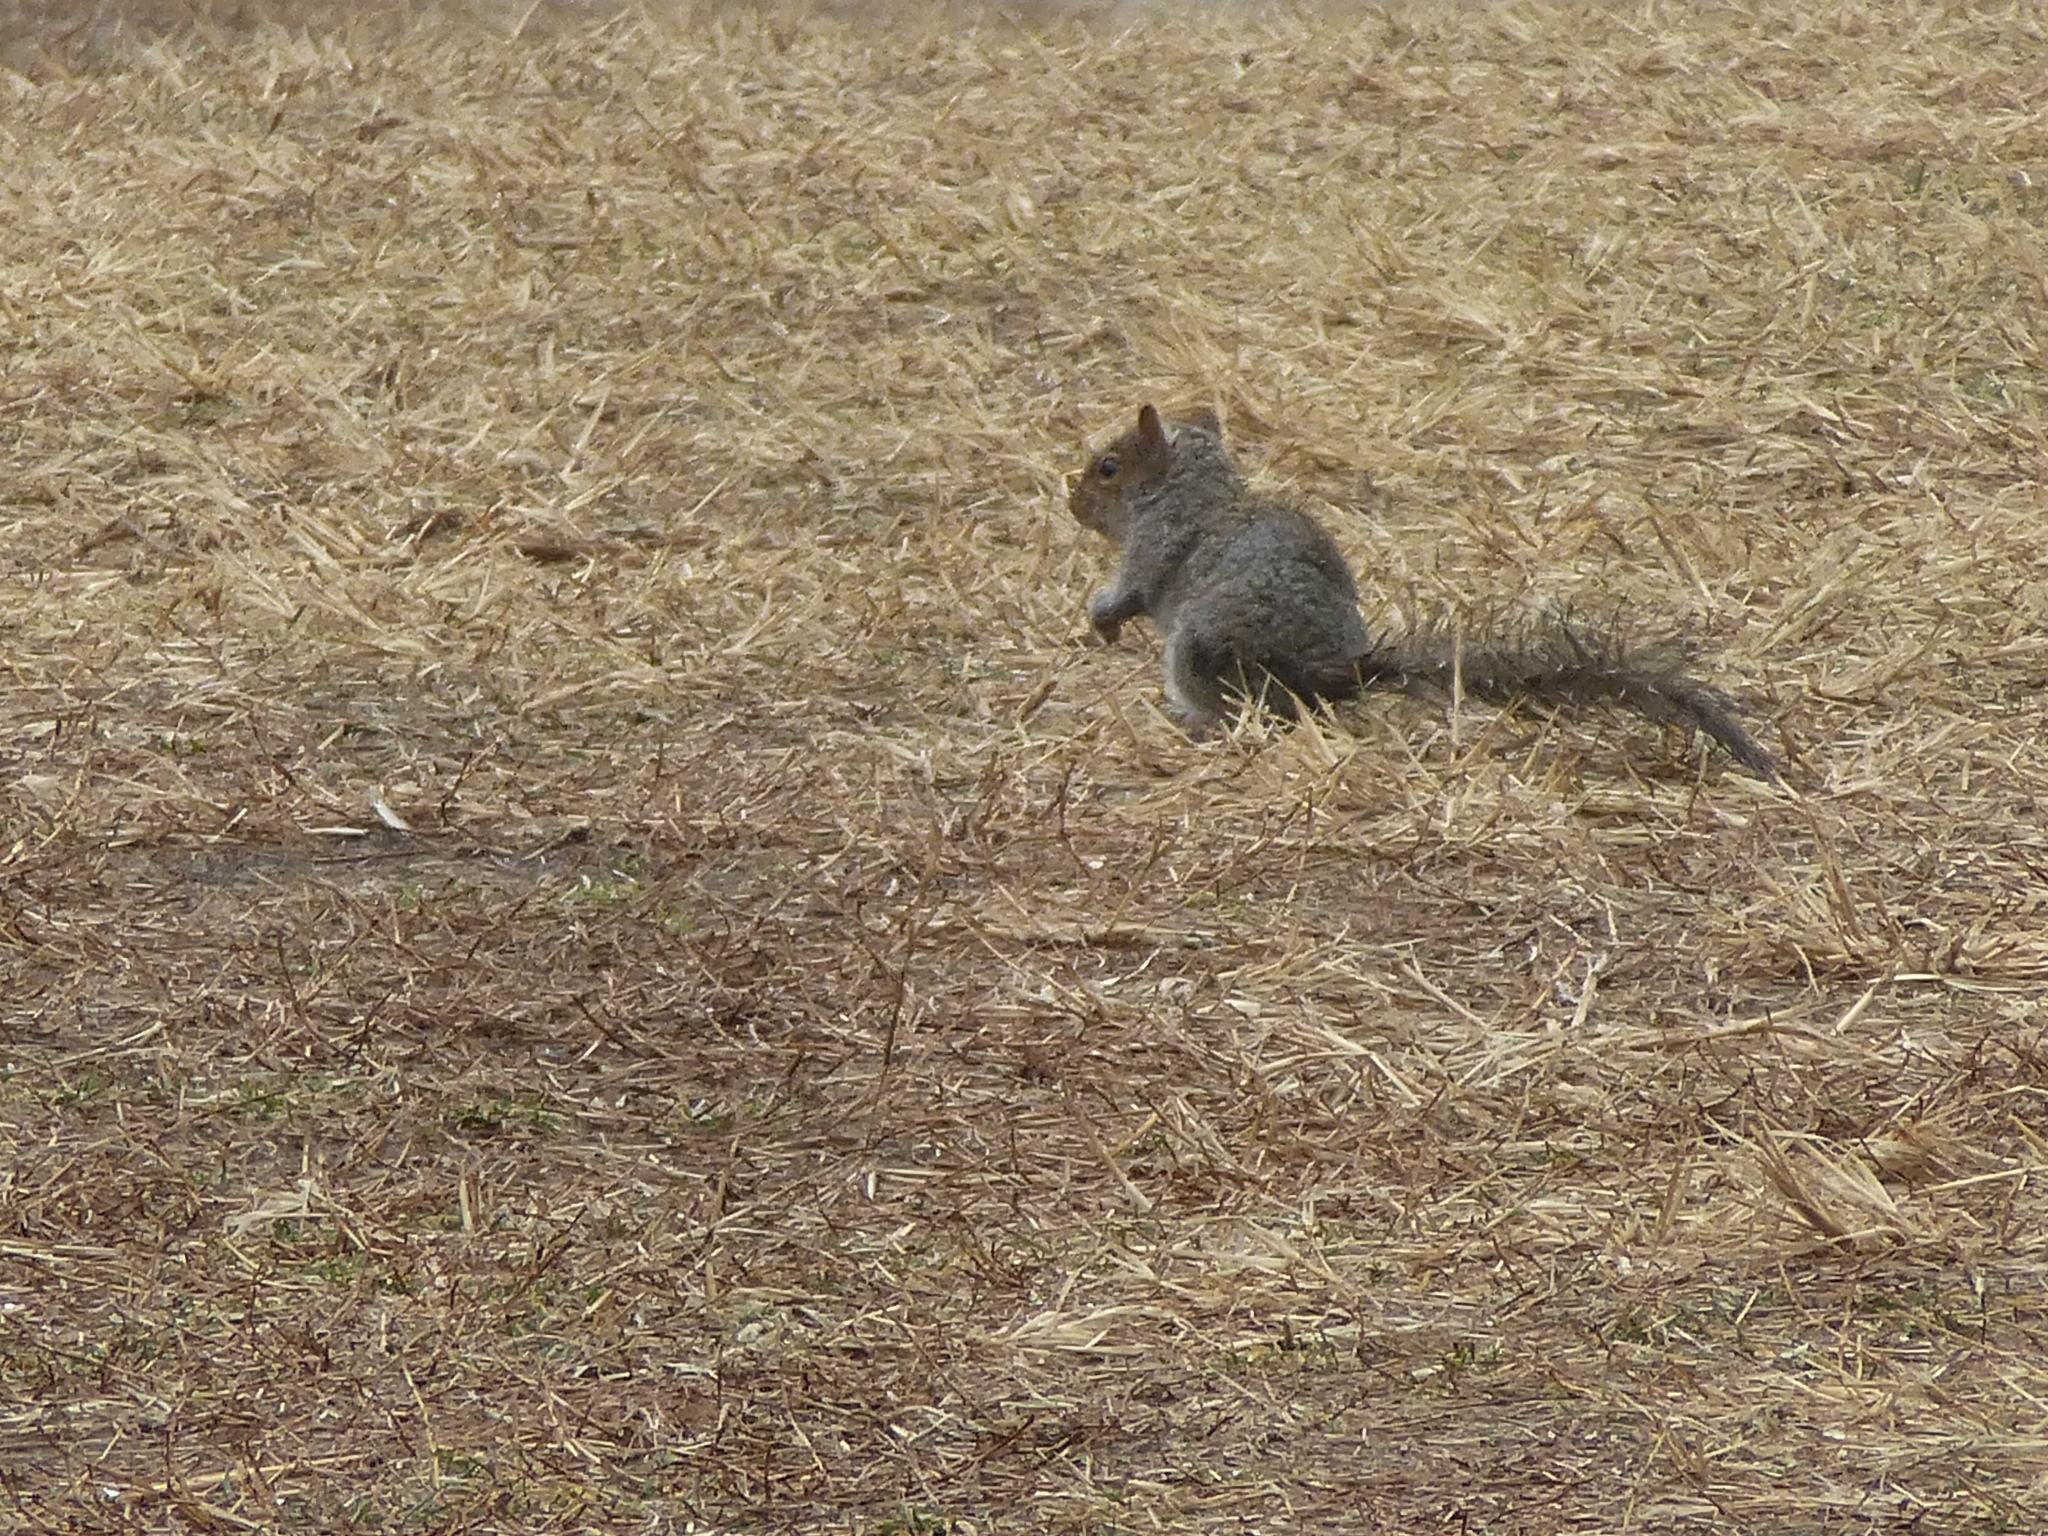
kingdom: Animalia
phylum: Chordata
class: Mammalia
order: Rodentia
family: Sciuridae
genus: Sciurus
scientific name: Sciurus carolinensis
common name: Eastern gray squirrel
